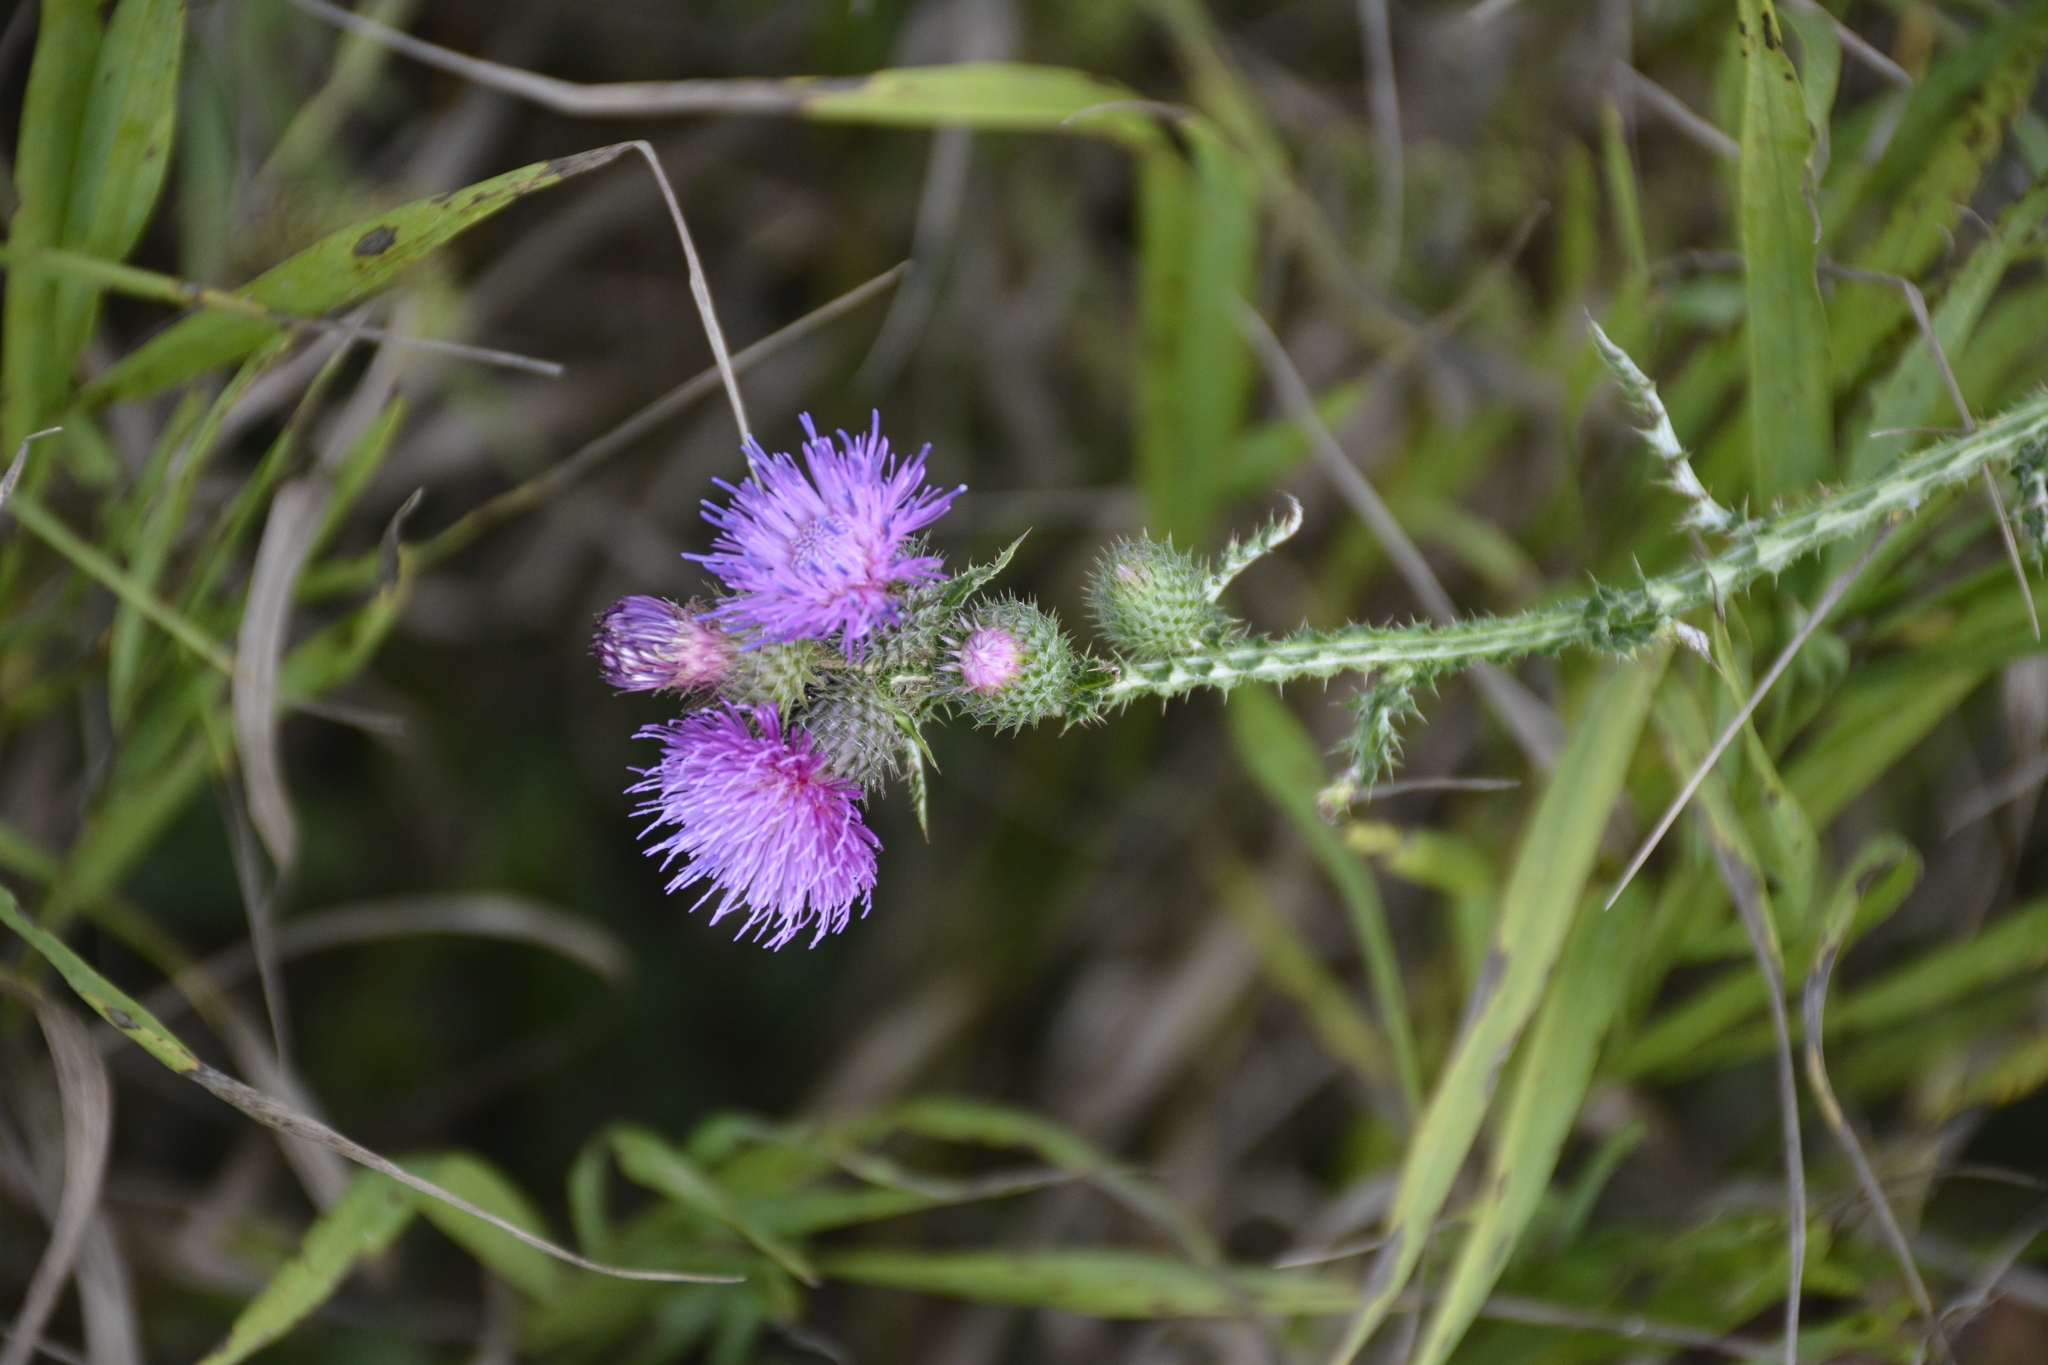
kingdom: Plantae
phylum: Tracheophyta
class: Magnoliopsida
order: Asterales
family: Asteraceae
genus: Carduus
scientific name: Carduus crispus
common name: Welted thistle
